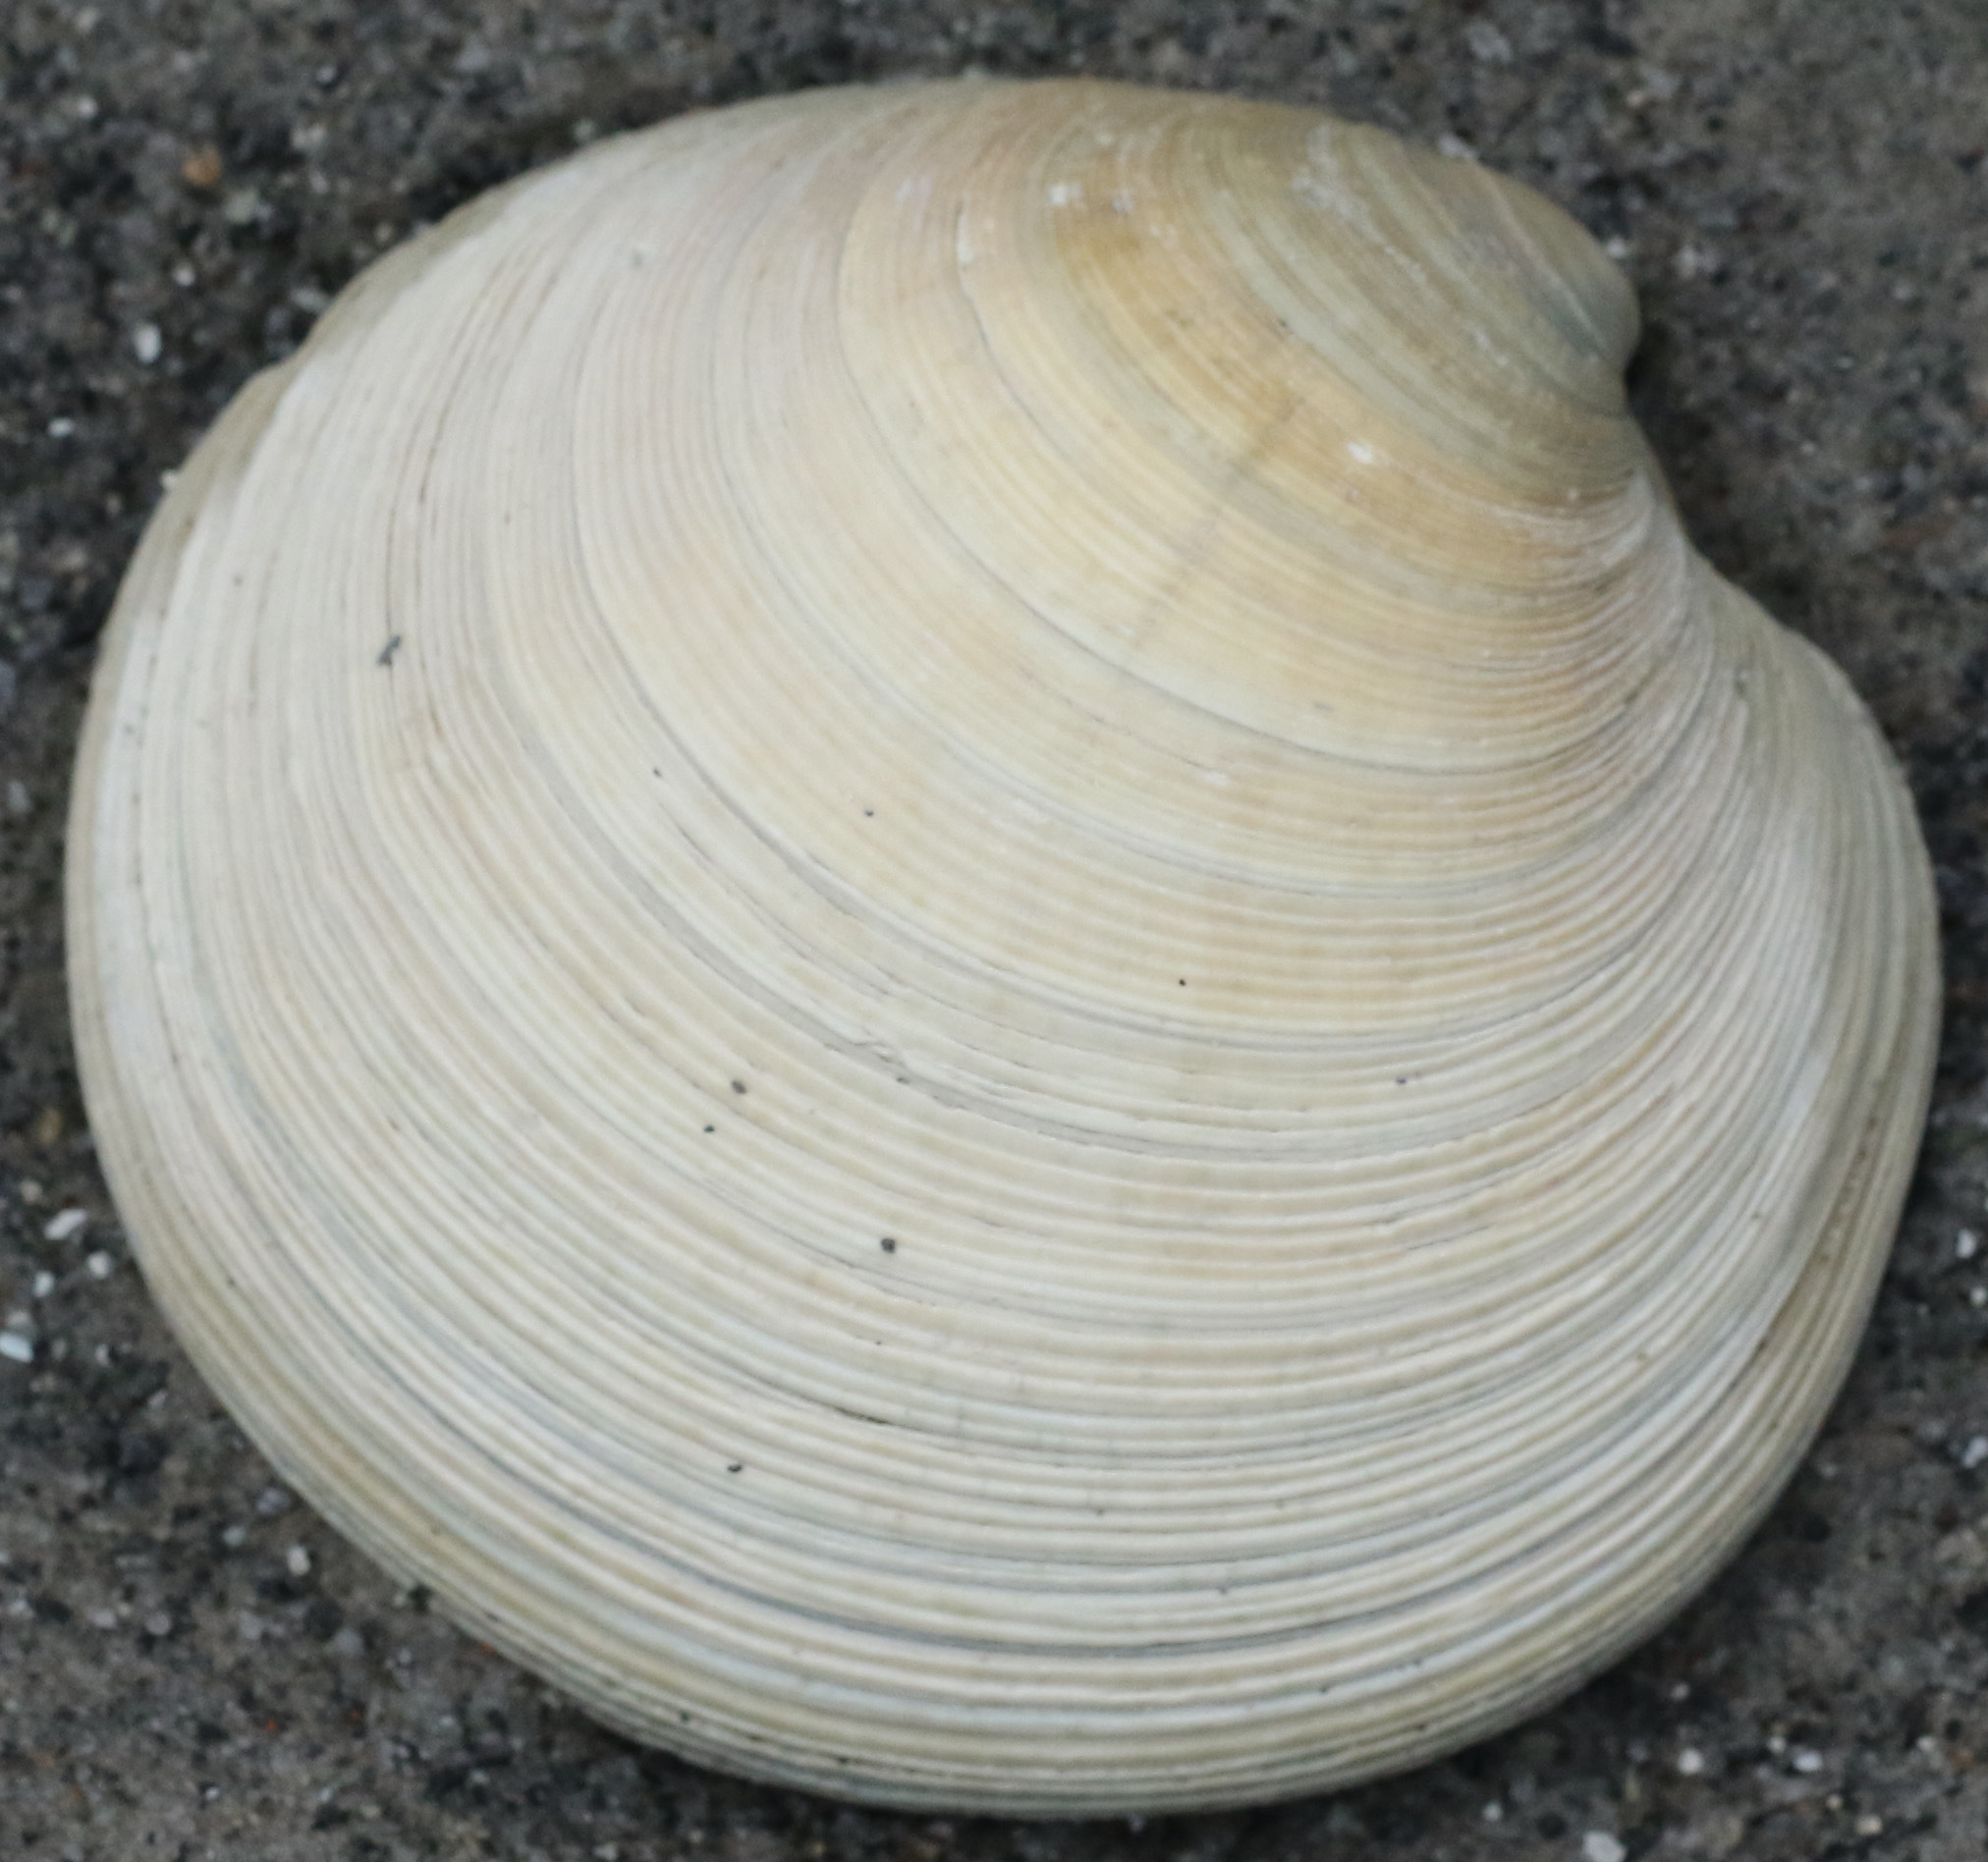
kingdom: Animalia
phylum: Mollusca
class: Bivalvia
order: Venerida
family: Veneridae
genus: Dosinia
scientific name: Dosinia exoleta
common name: Rayed artemis
